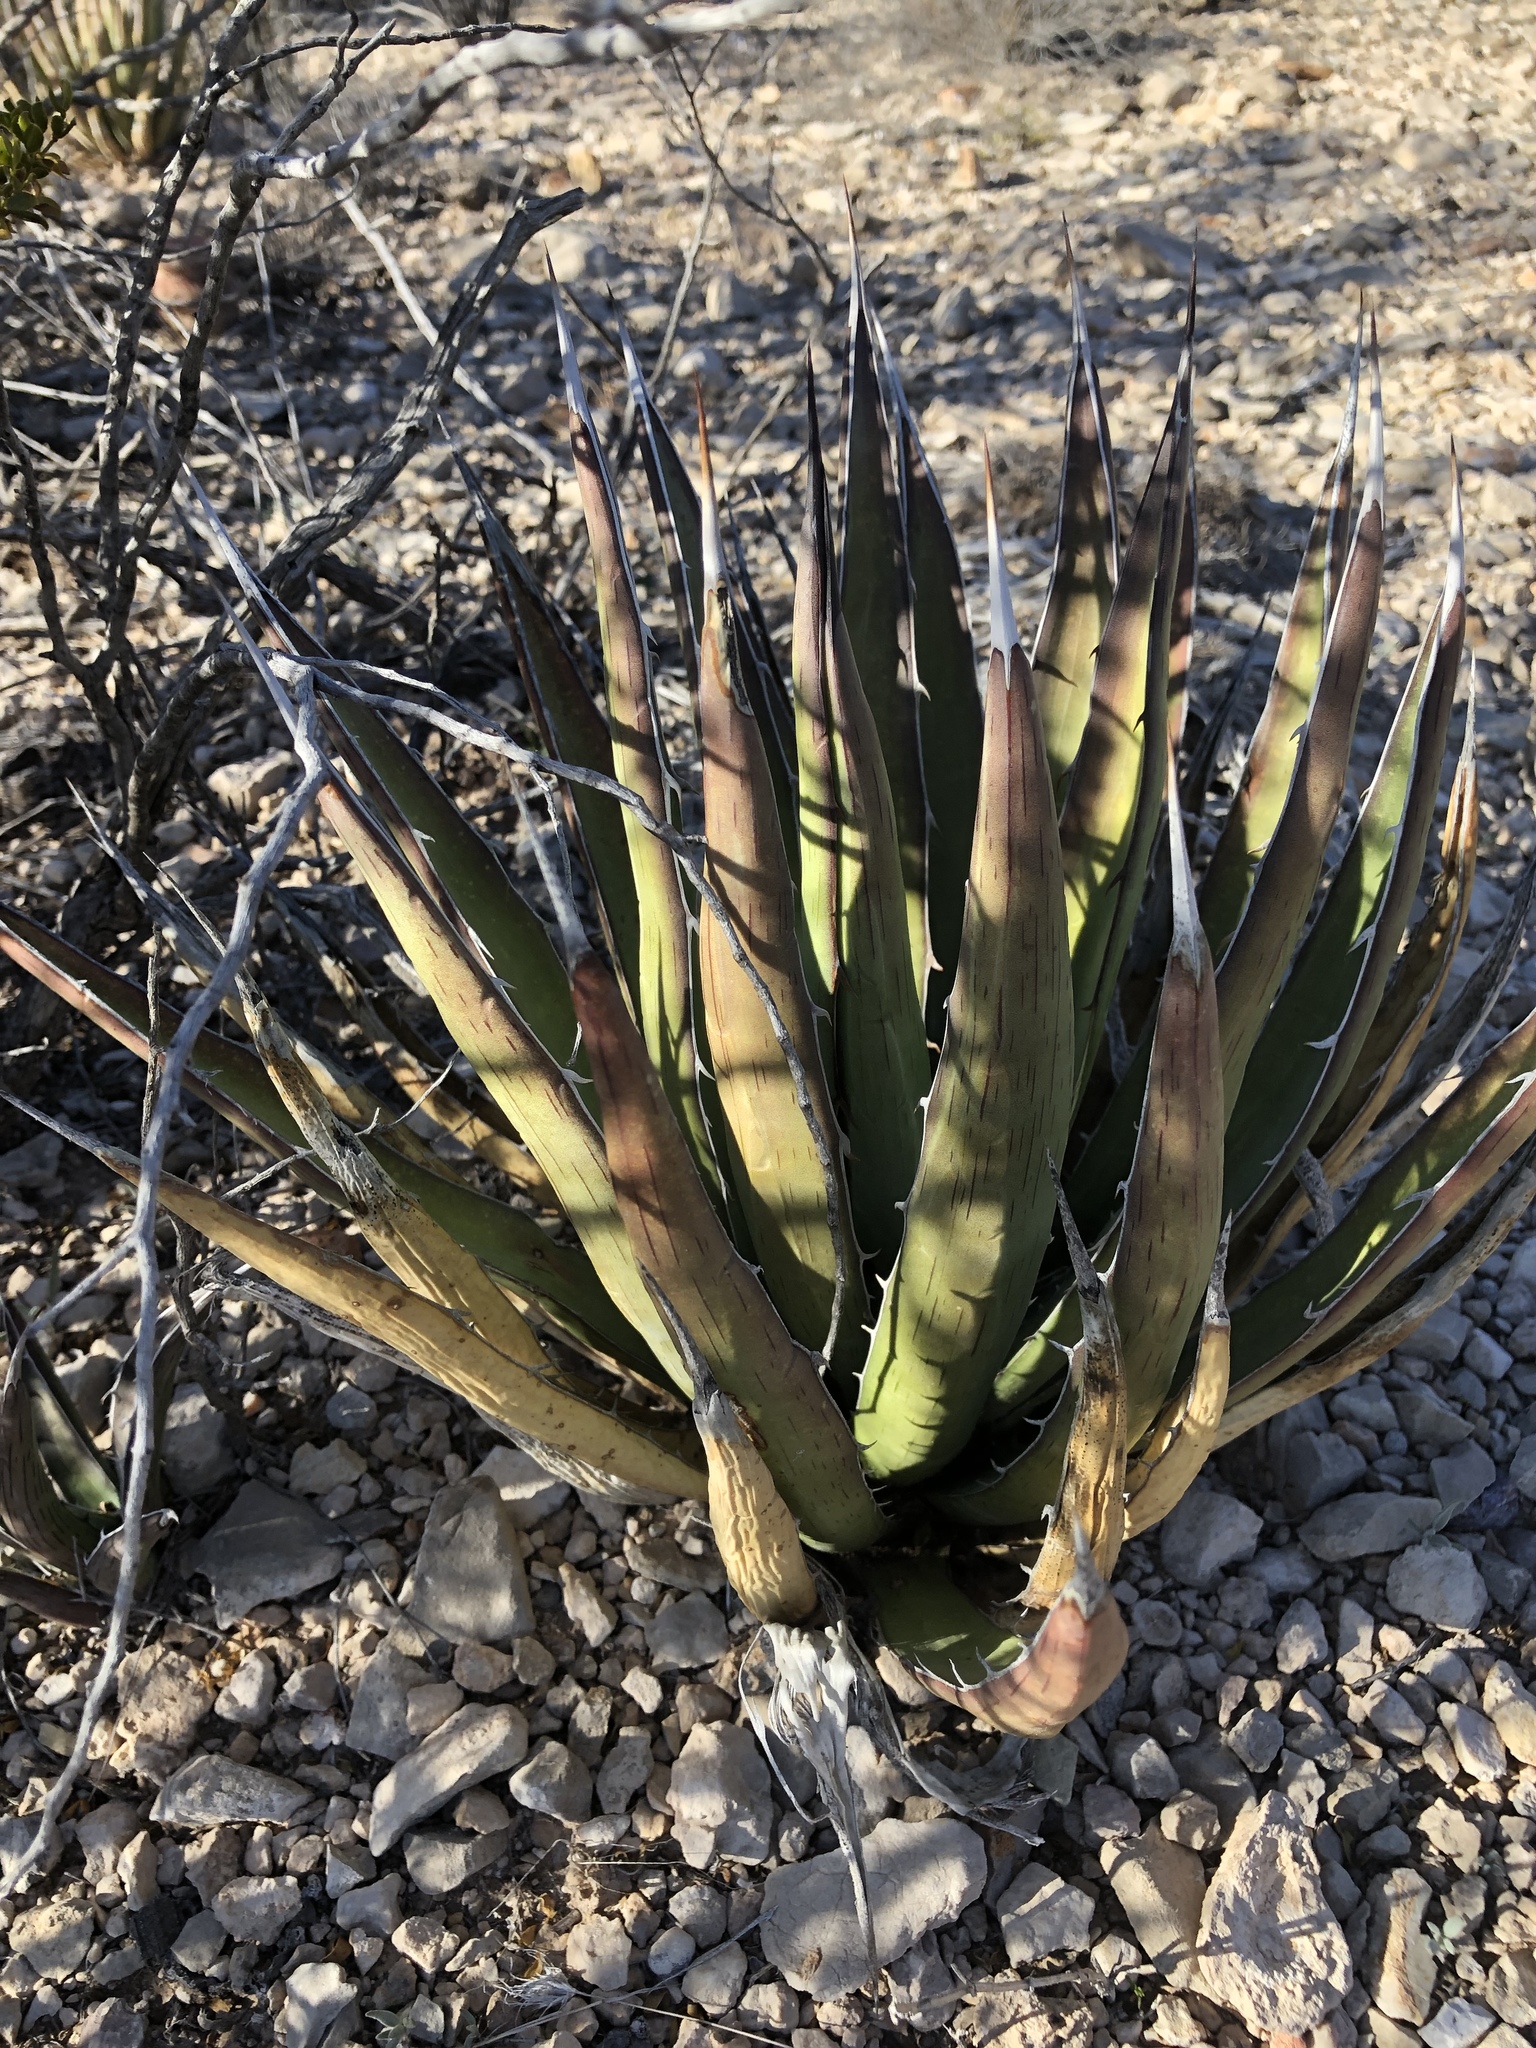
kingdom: Plantae
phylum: Tracheophyta
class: Liliopsida
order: Asparagales
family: Asparagaceae
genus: Agave
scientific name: Agave lechuguilla
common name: Lecheguilla agave
